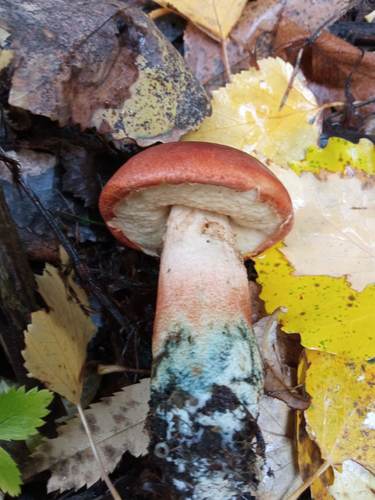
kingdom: Fungi
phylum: Basidiomycota
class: Agaricomycetes
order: Boletales
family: Boletaceae
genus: Leccinum
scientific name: Leccinum aurantiacum
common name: Orange bolete
